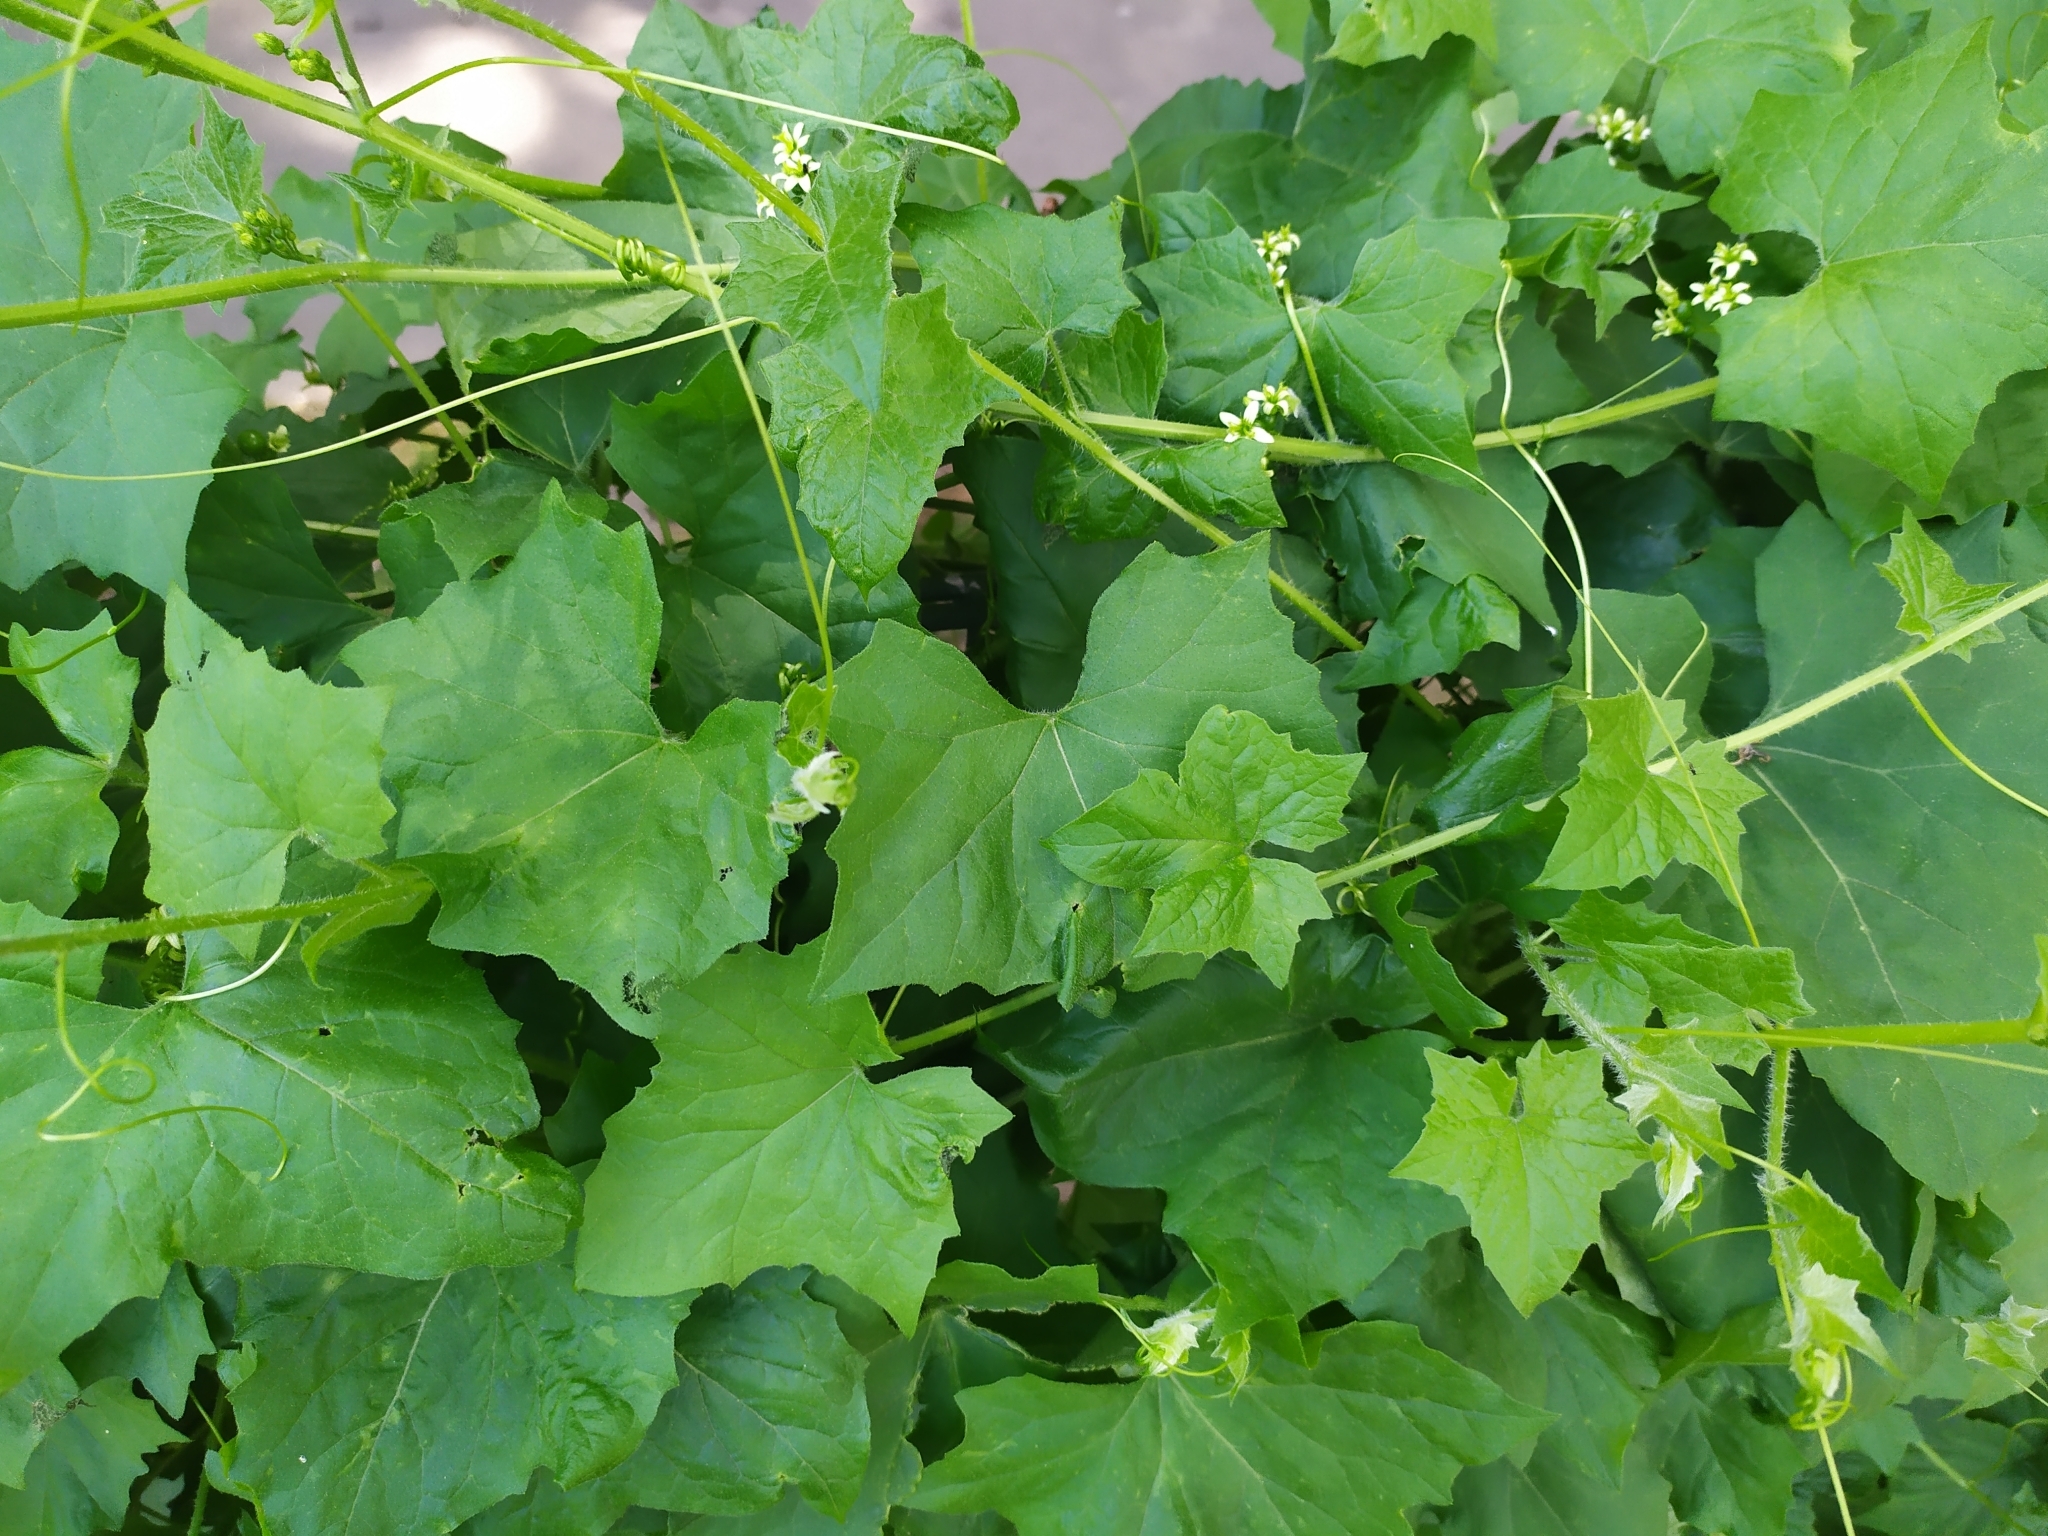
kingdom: Plantae
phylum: Tracheophyta
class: Magnoliopsida
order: Cucurbitales
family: Cucurbitaceae
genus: Bryonia
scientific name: Bryonia dioica
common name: White bryony
